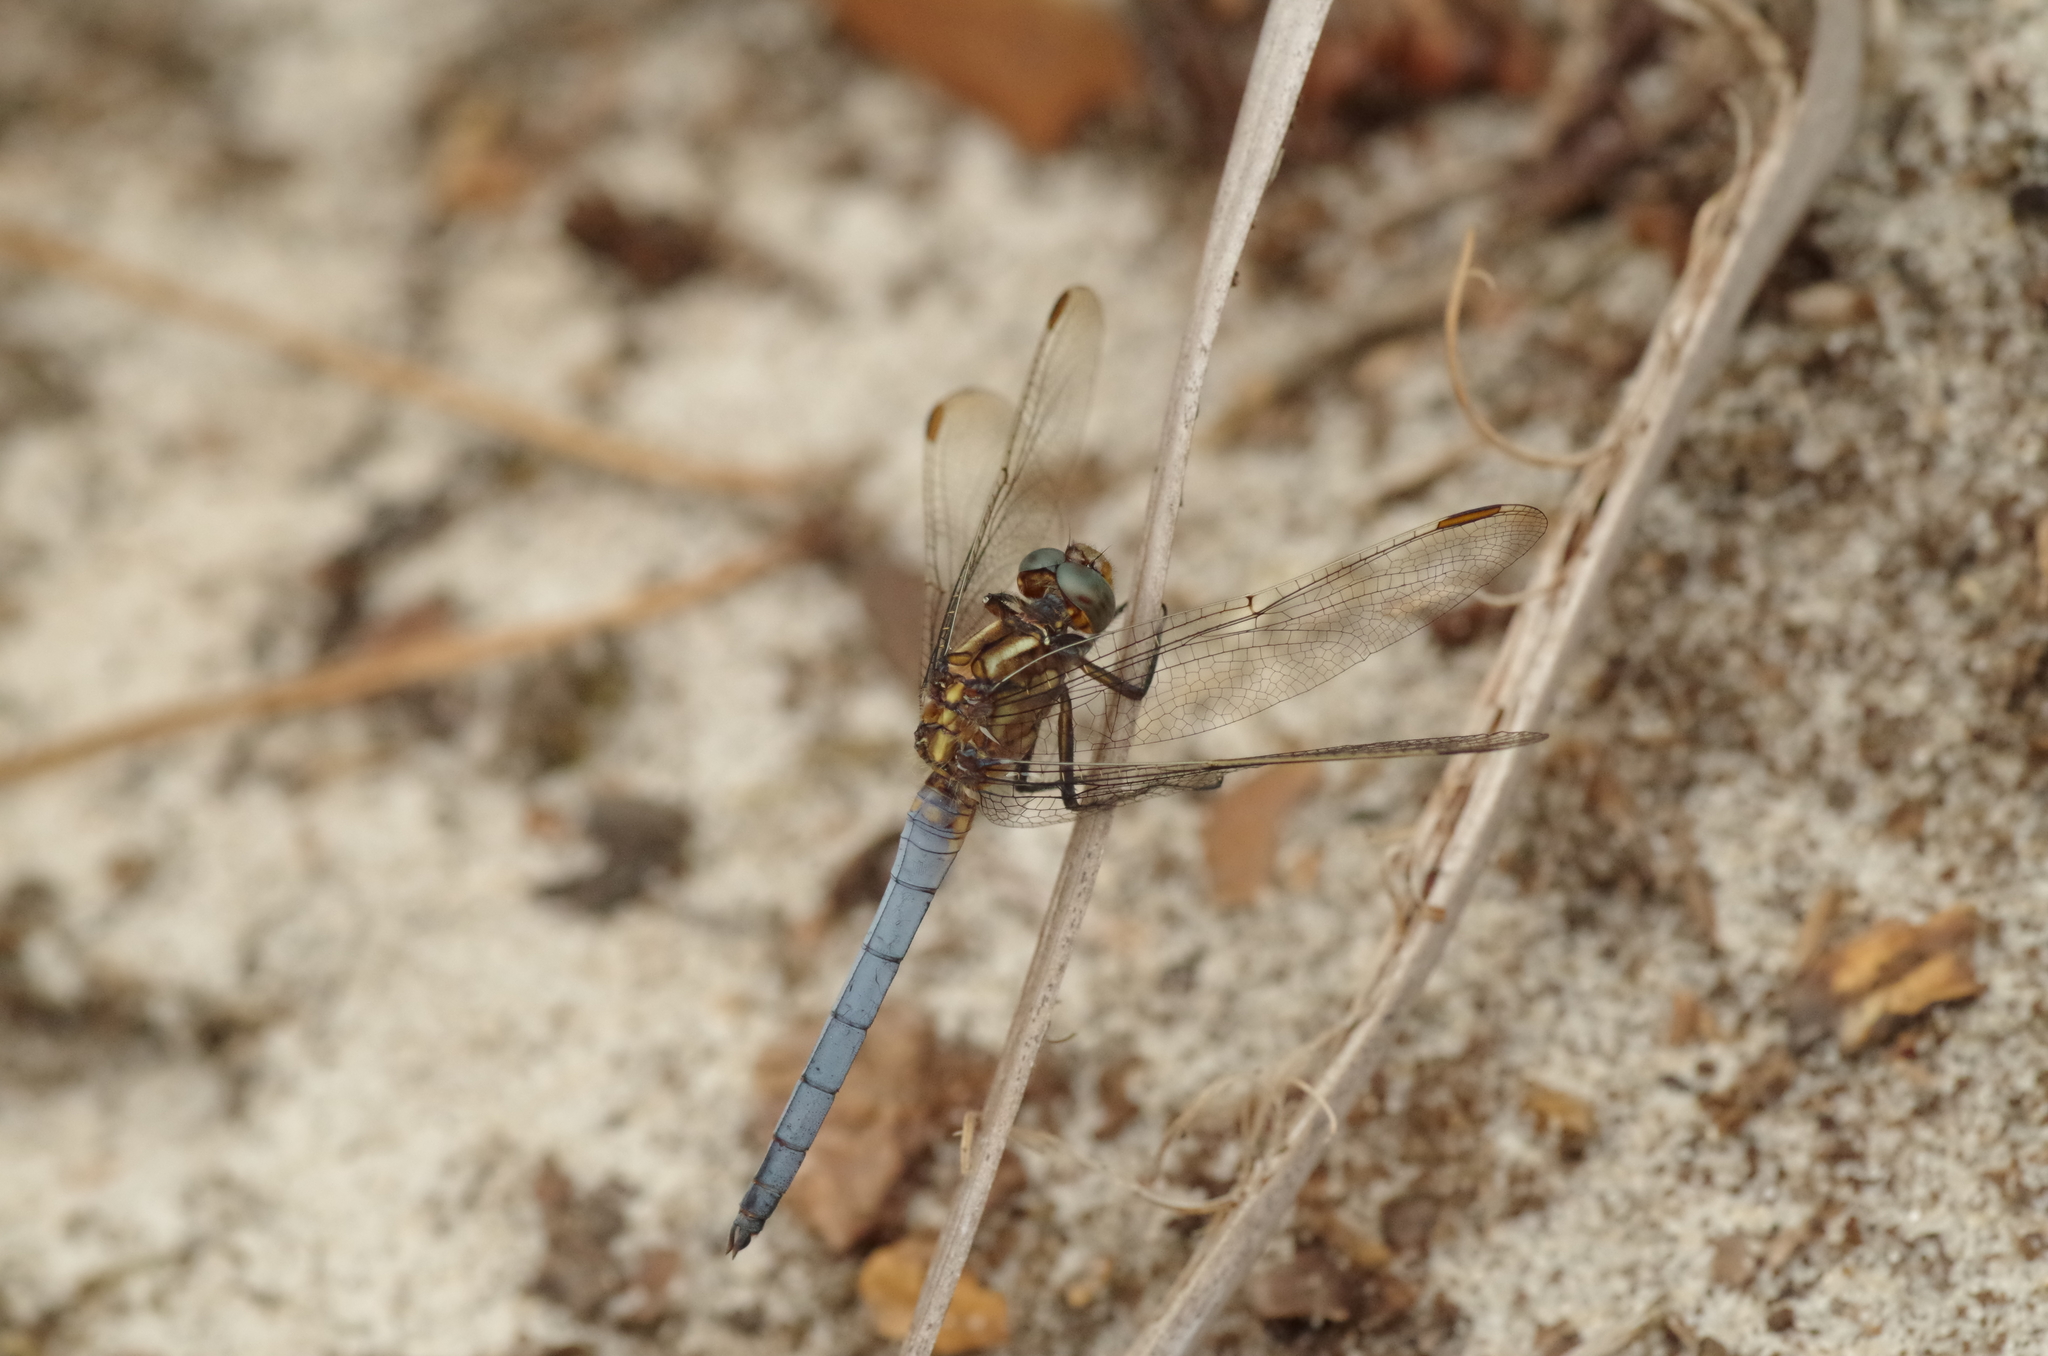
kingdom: Animalia
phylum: Arthropoda
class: Insecta
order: Odonata
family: Libellulidae
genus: Orthetrum
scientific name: Orthetrum coerulescens
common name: Keeled skimmer
